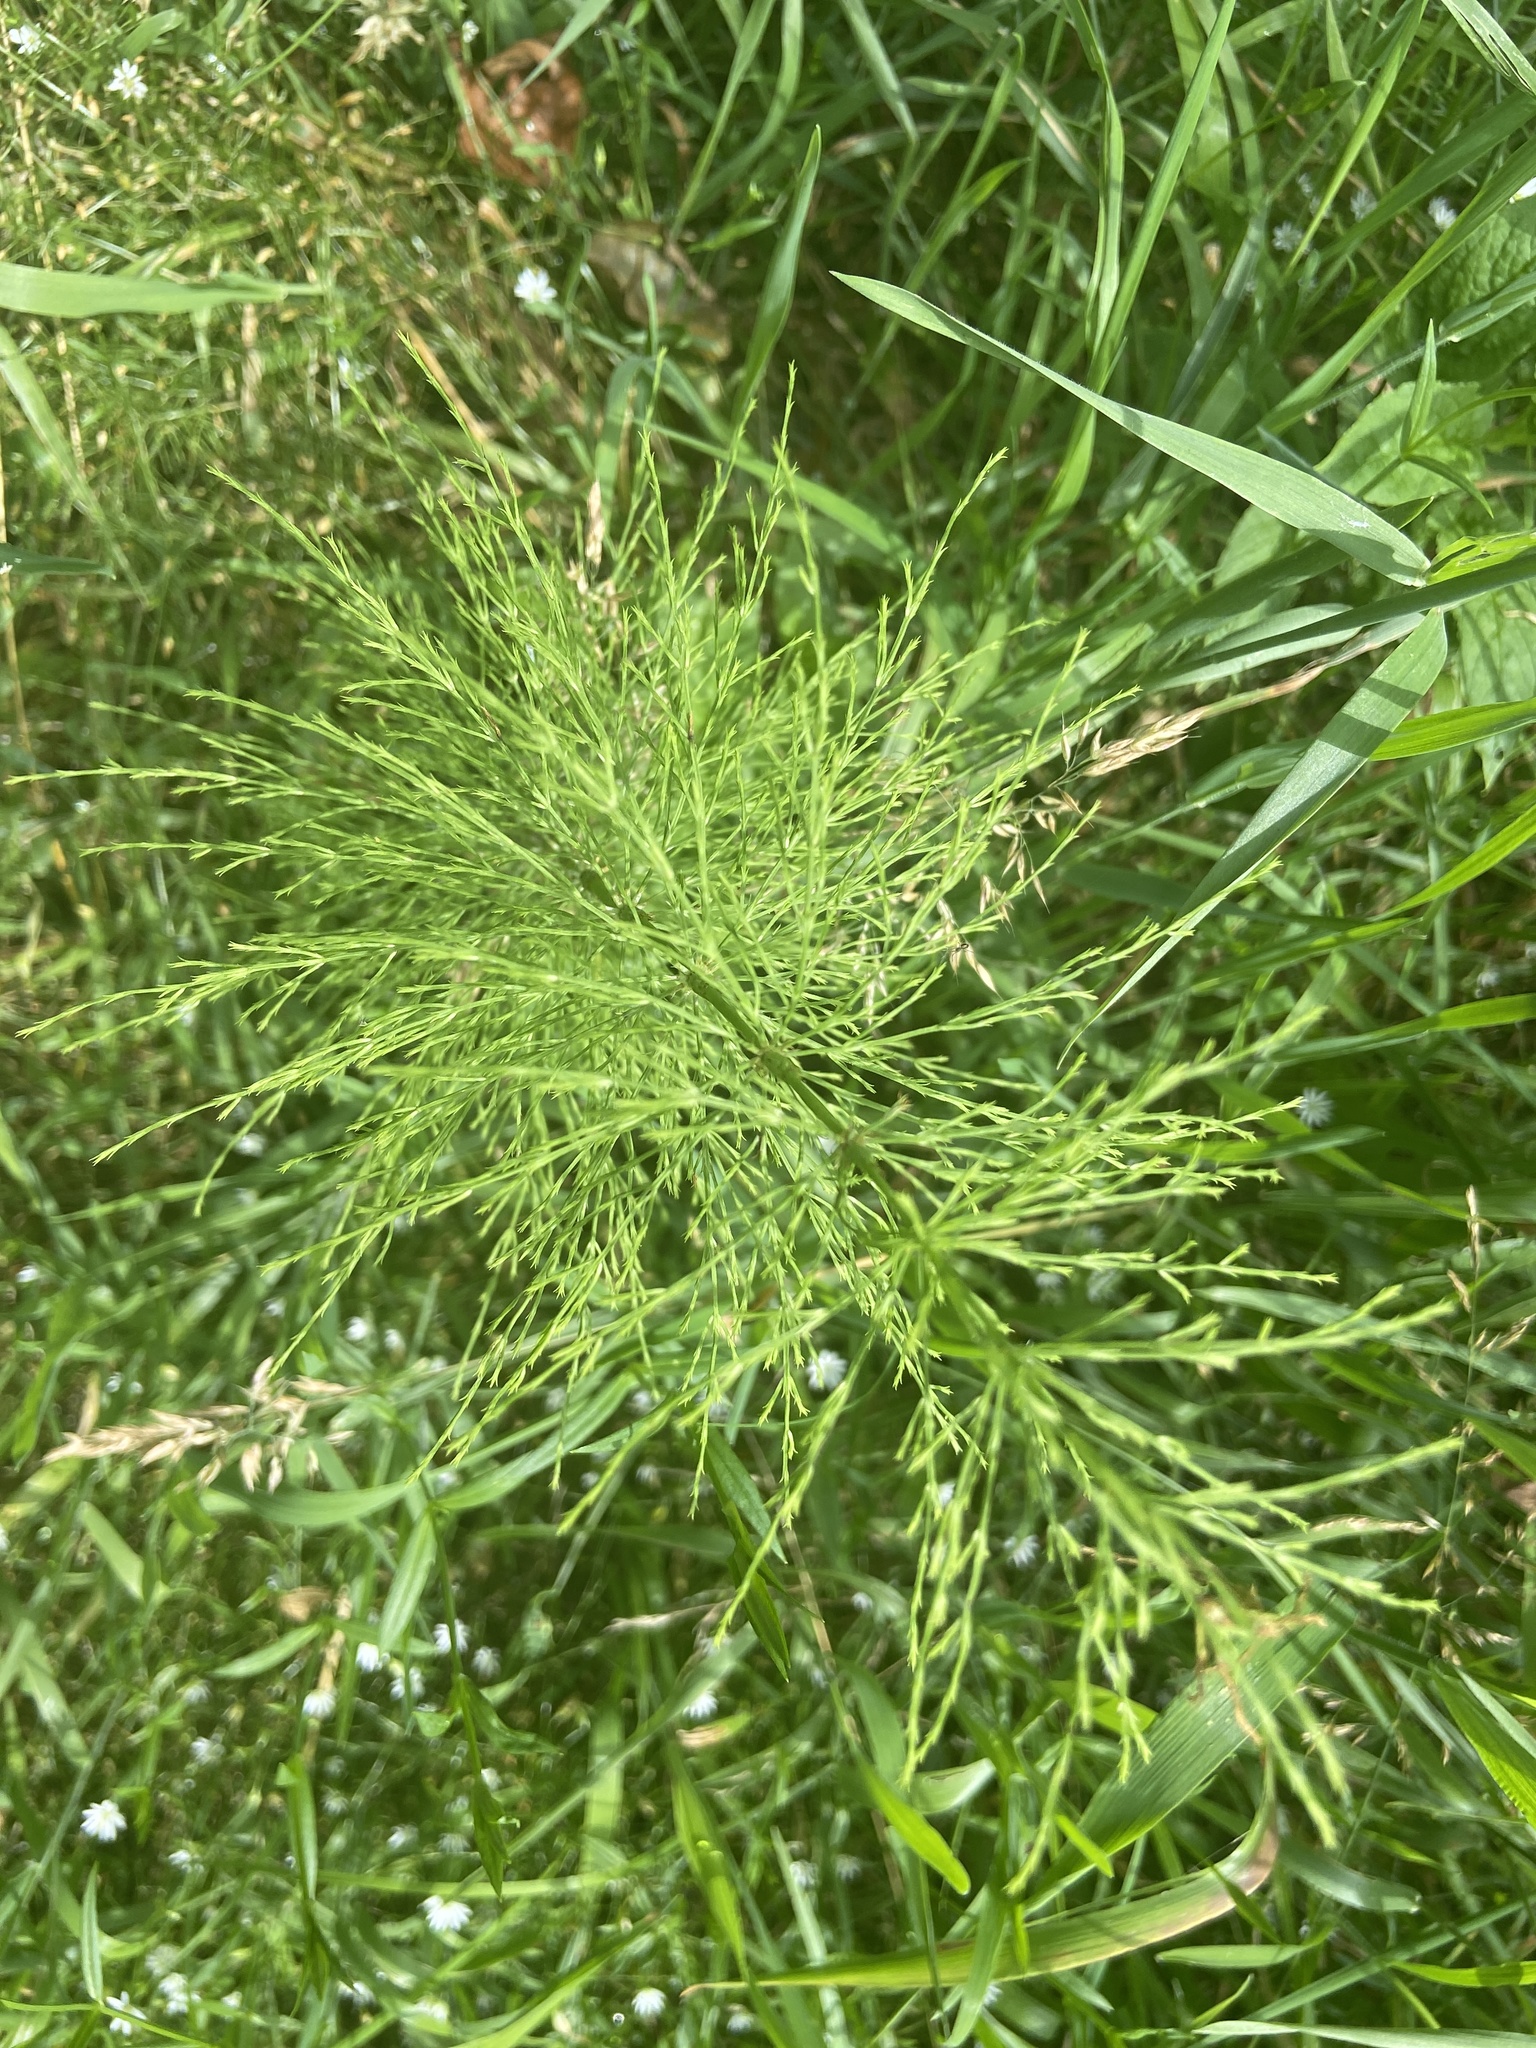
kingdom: Plantae
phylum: Tracheophyta
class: Polypodiopsida
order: Equisetales
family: Equisetaceae
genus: Equisetum
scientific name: Equisetum sylvaticum
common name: Wood horsetail
